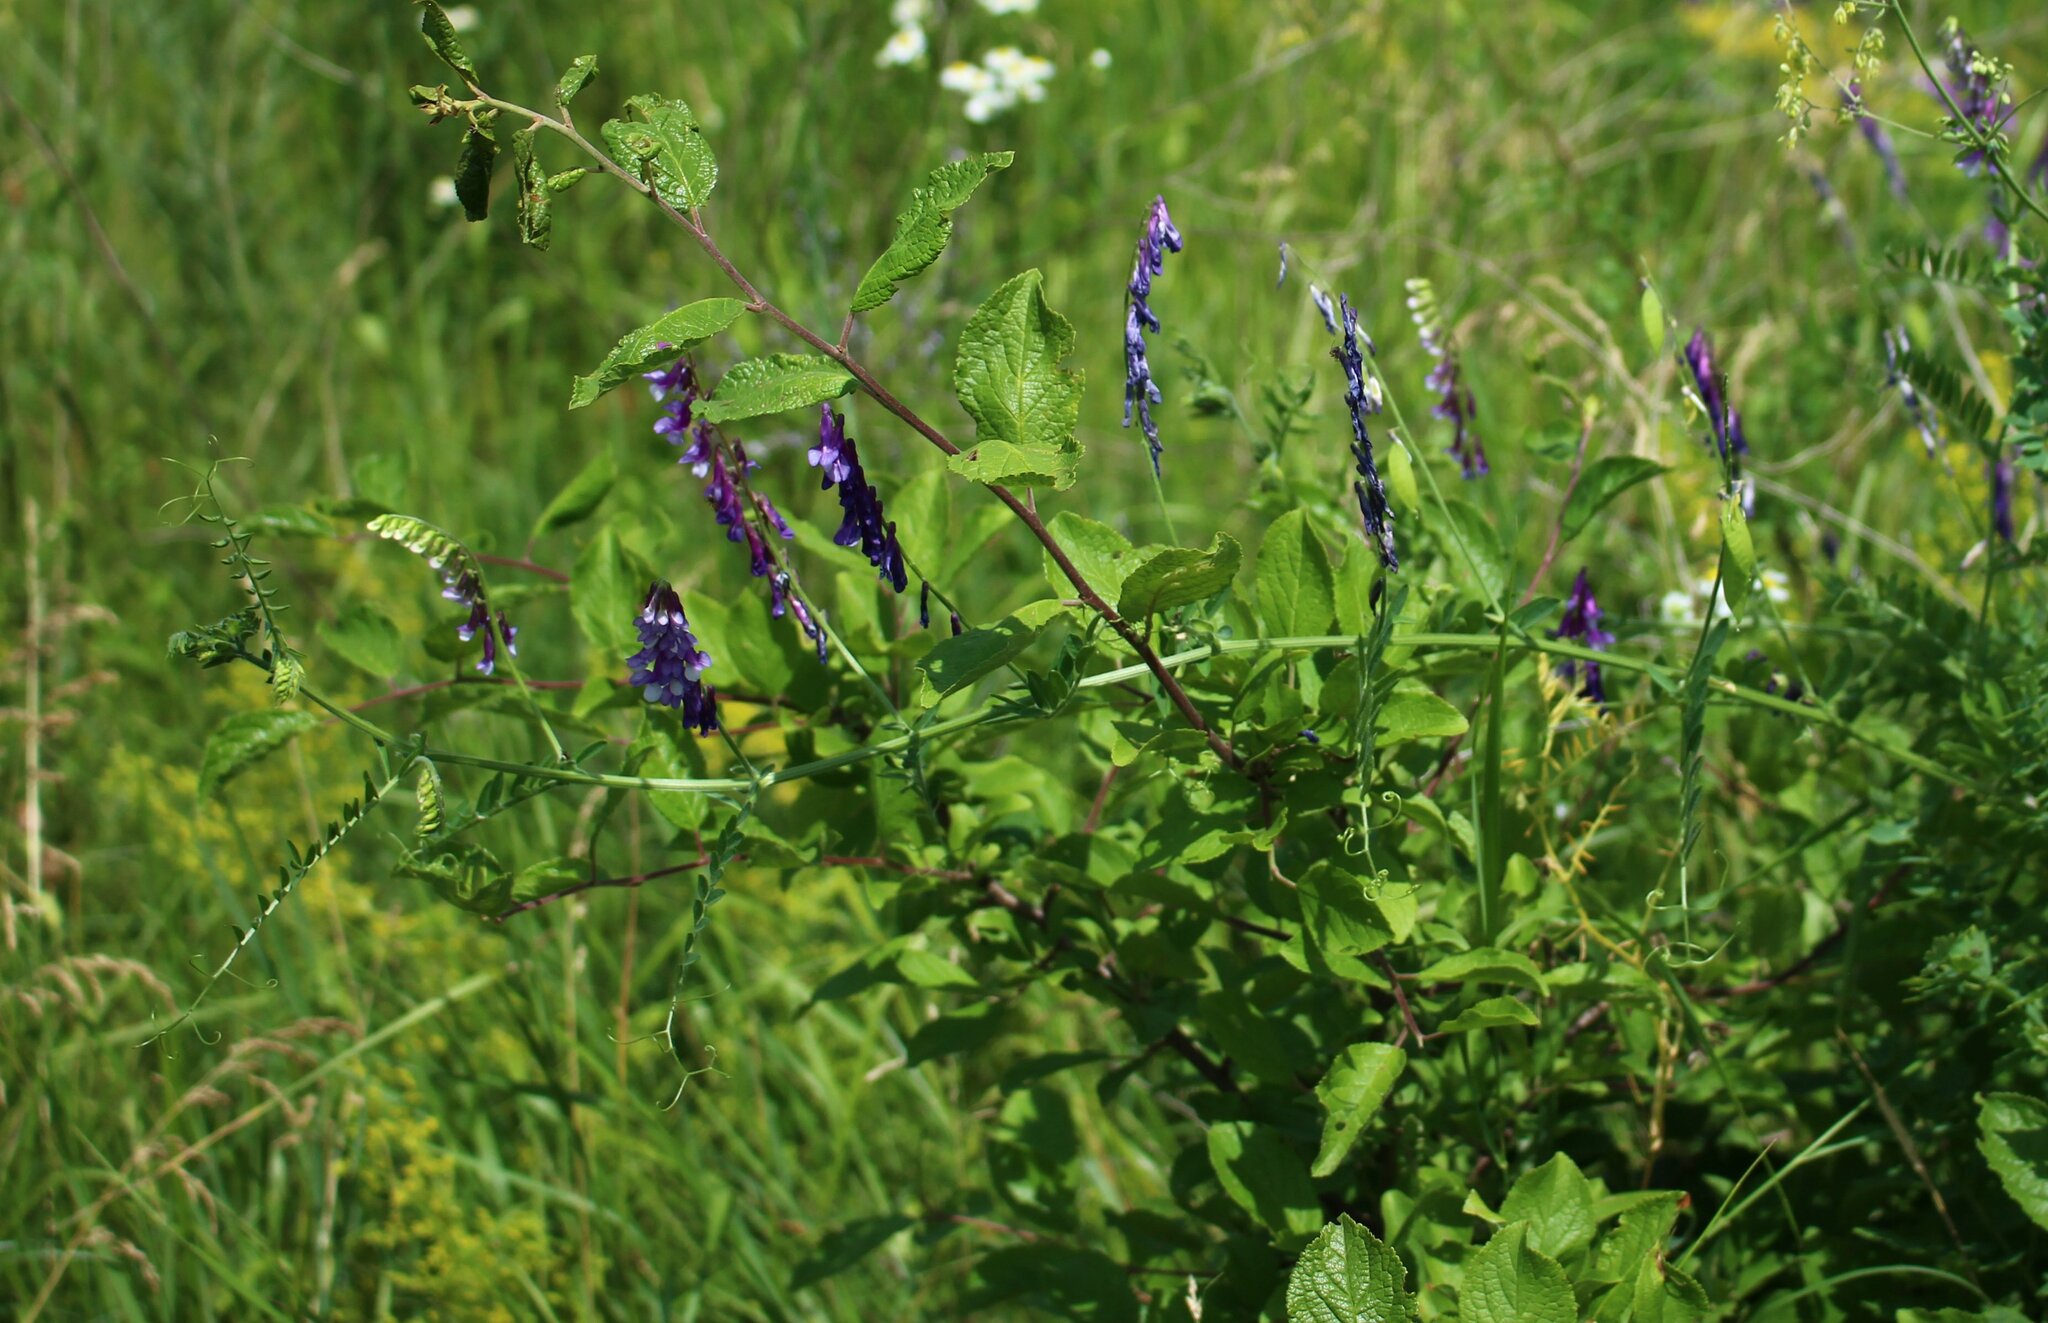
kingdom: Plantae
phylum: Tracheophyta
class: Magnoliopsida
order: Fabales
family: Fabaceae
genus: Vicia
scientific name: Vicia villosa
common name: Fodder vetch
